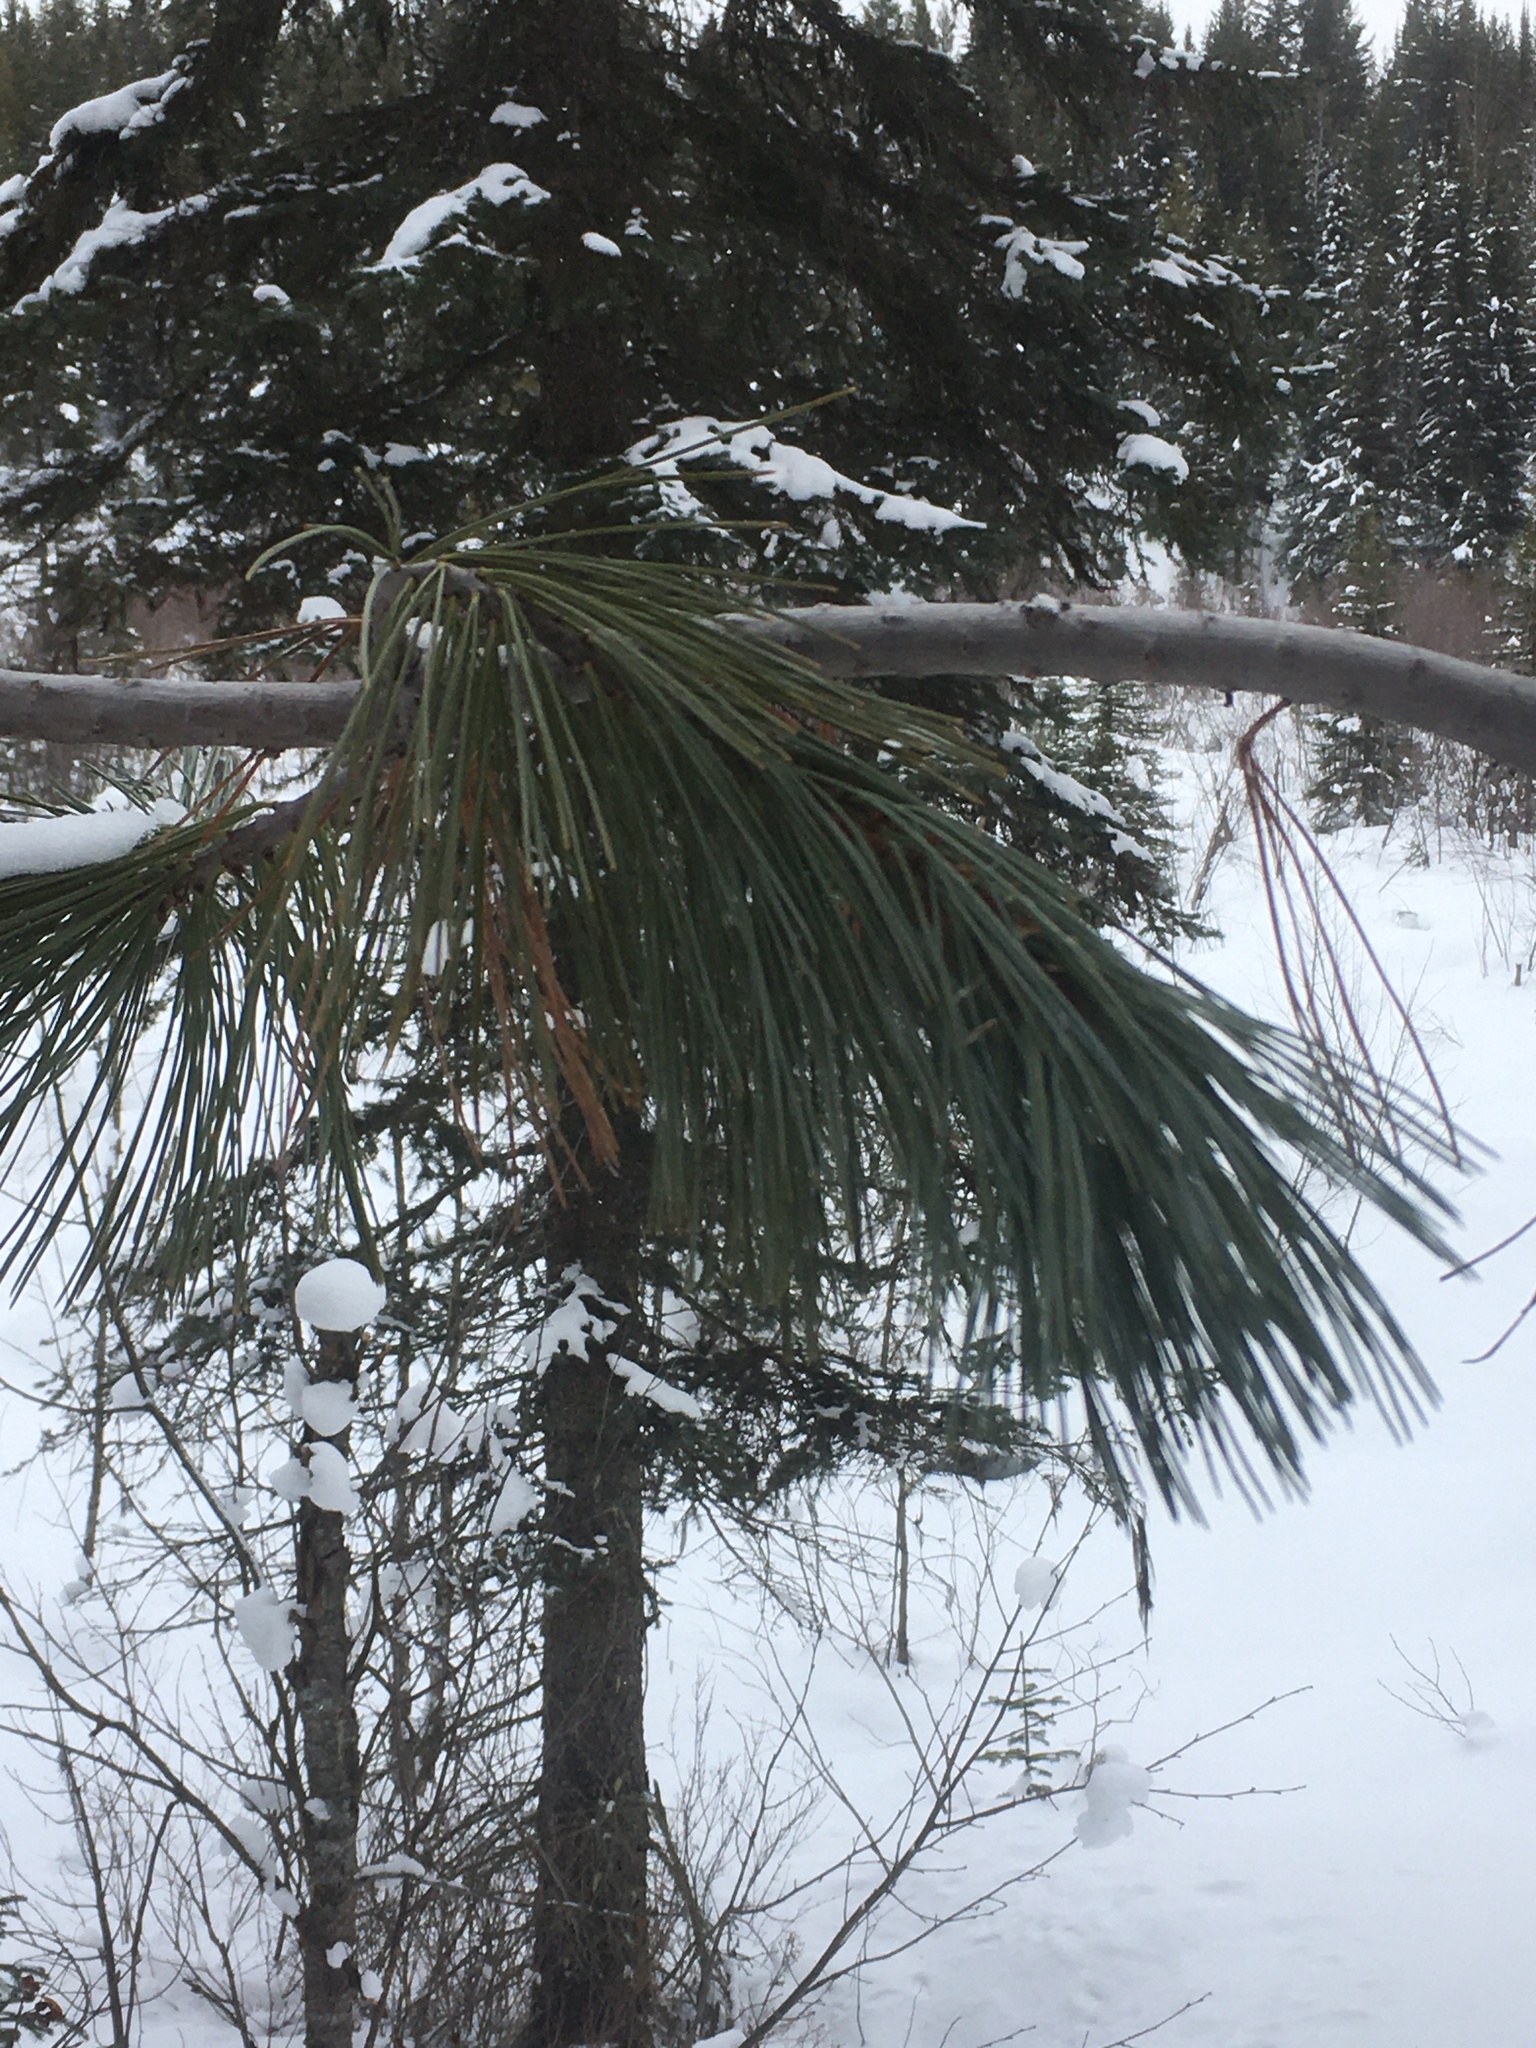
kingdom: Plantae
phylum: Tracheophyta
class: Pinopsida
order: Pinales
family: Pinaceae
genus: Pinus
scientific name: Pinus monticola
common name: Western white pine
